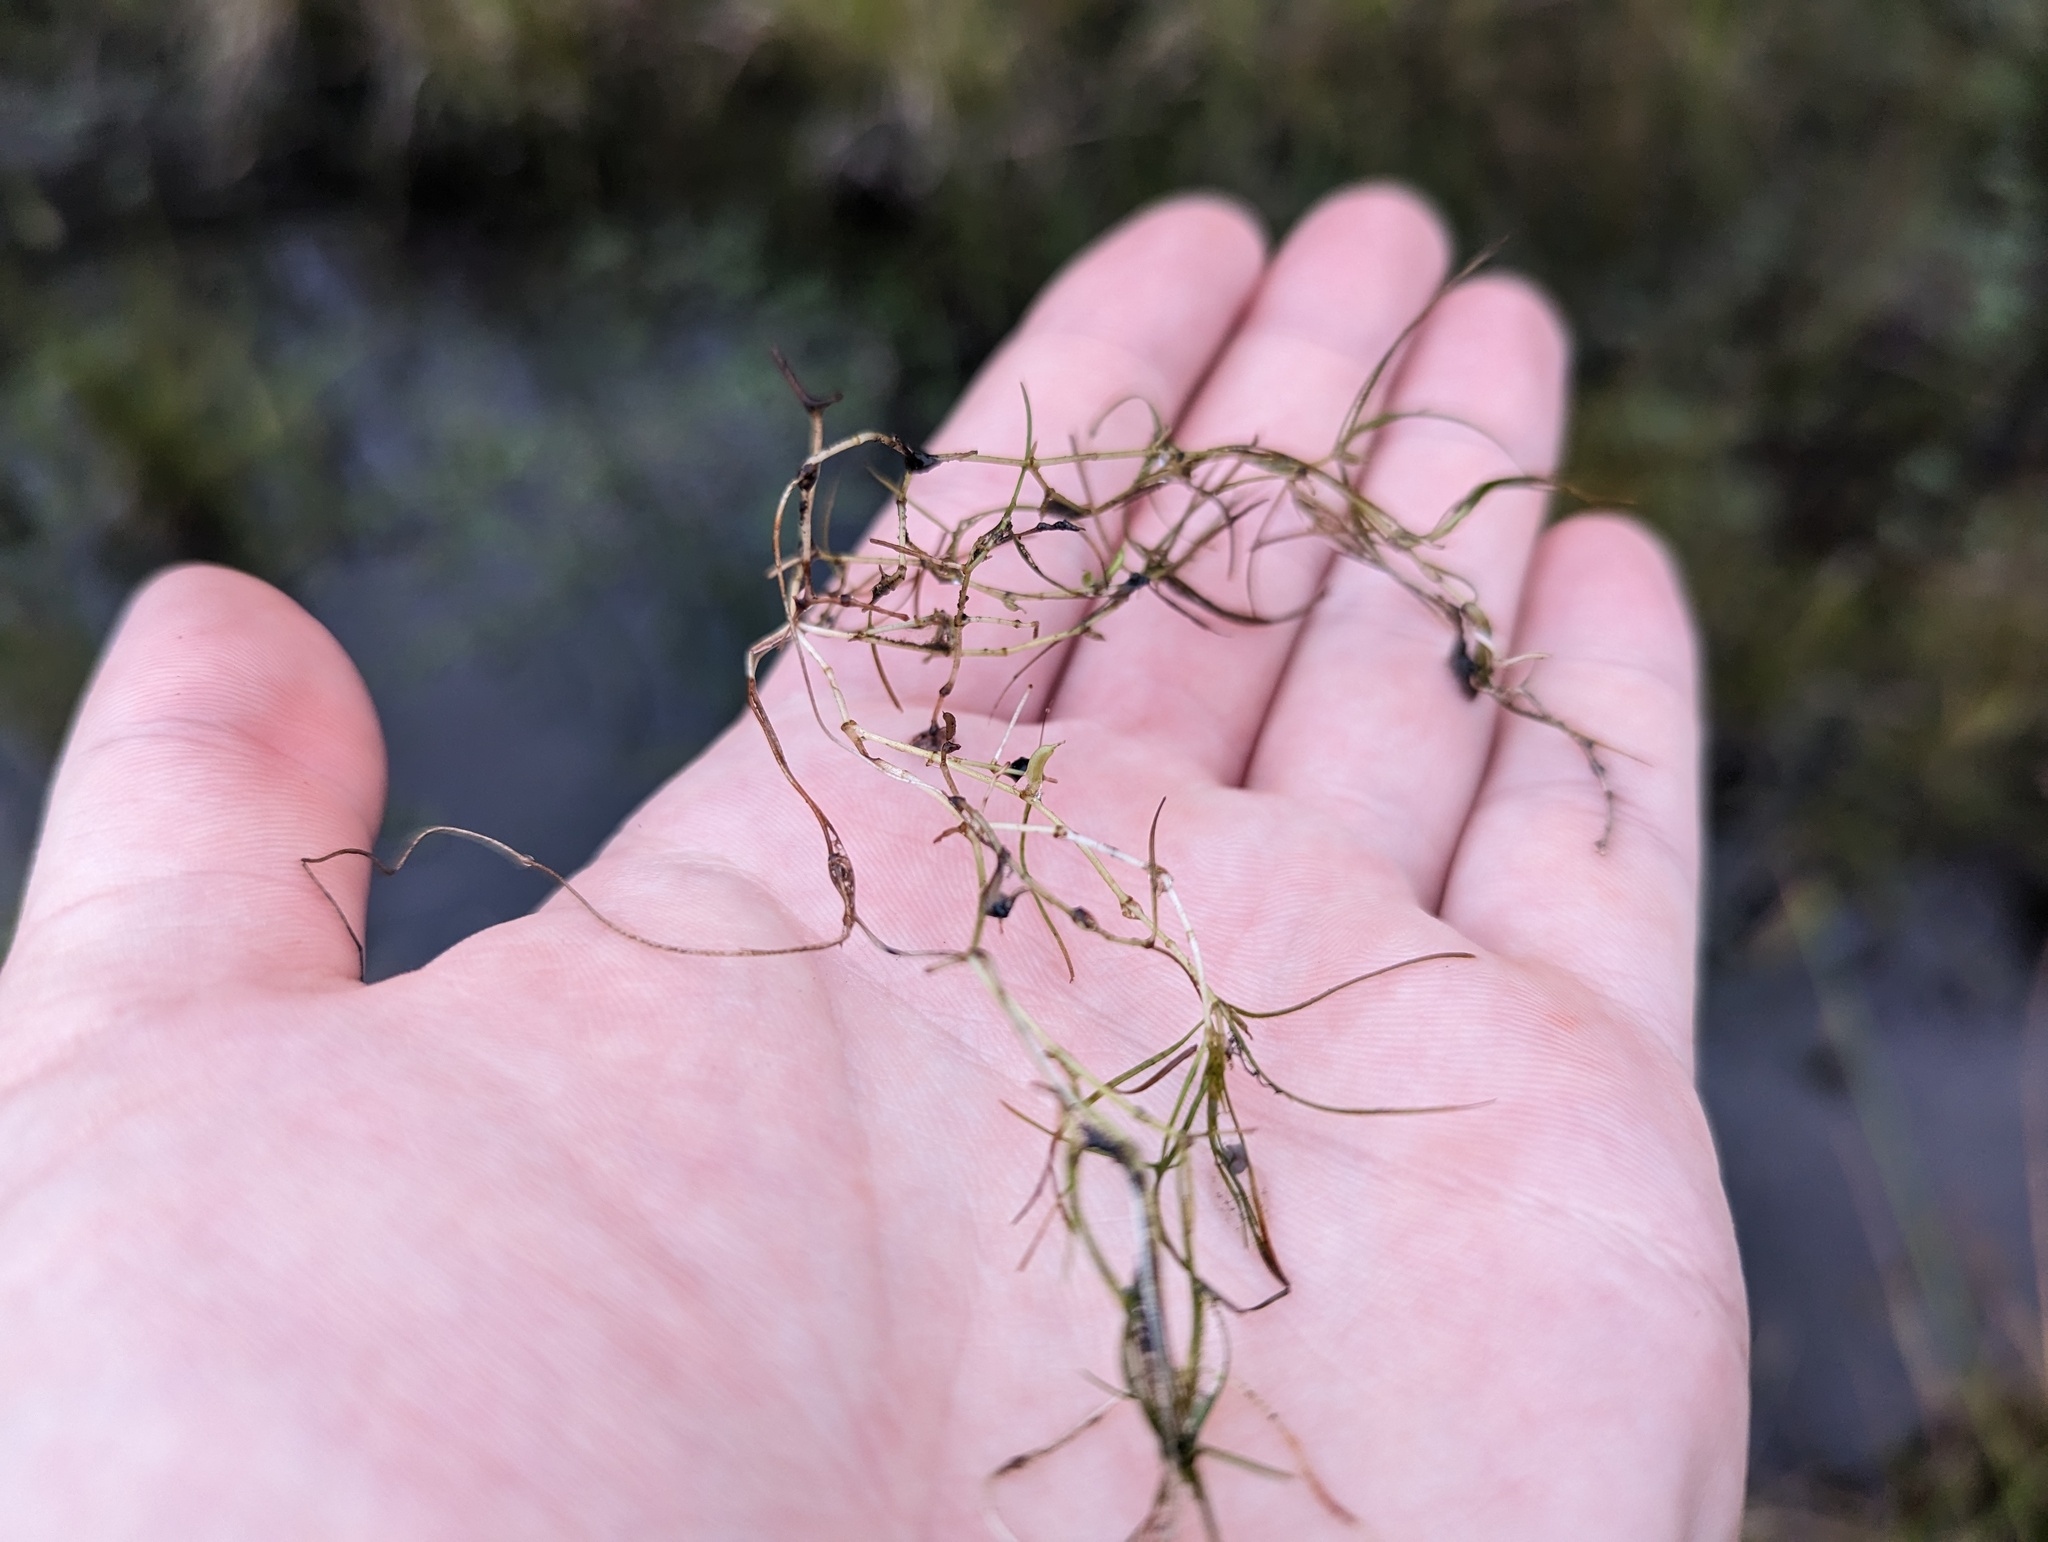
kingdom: Plantae
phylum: Tracheophyta
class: Liliopsida
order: Alismatales
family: Potamogetonaceae
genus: Zannichellia
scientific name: Zannichellia palustris
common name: Horned pondweed
